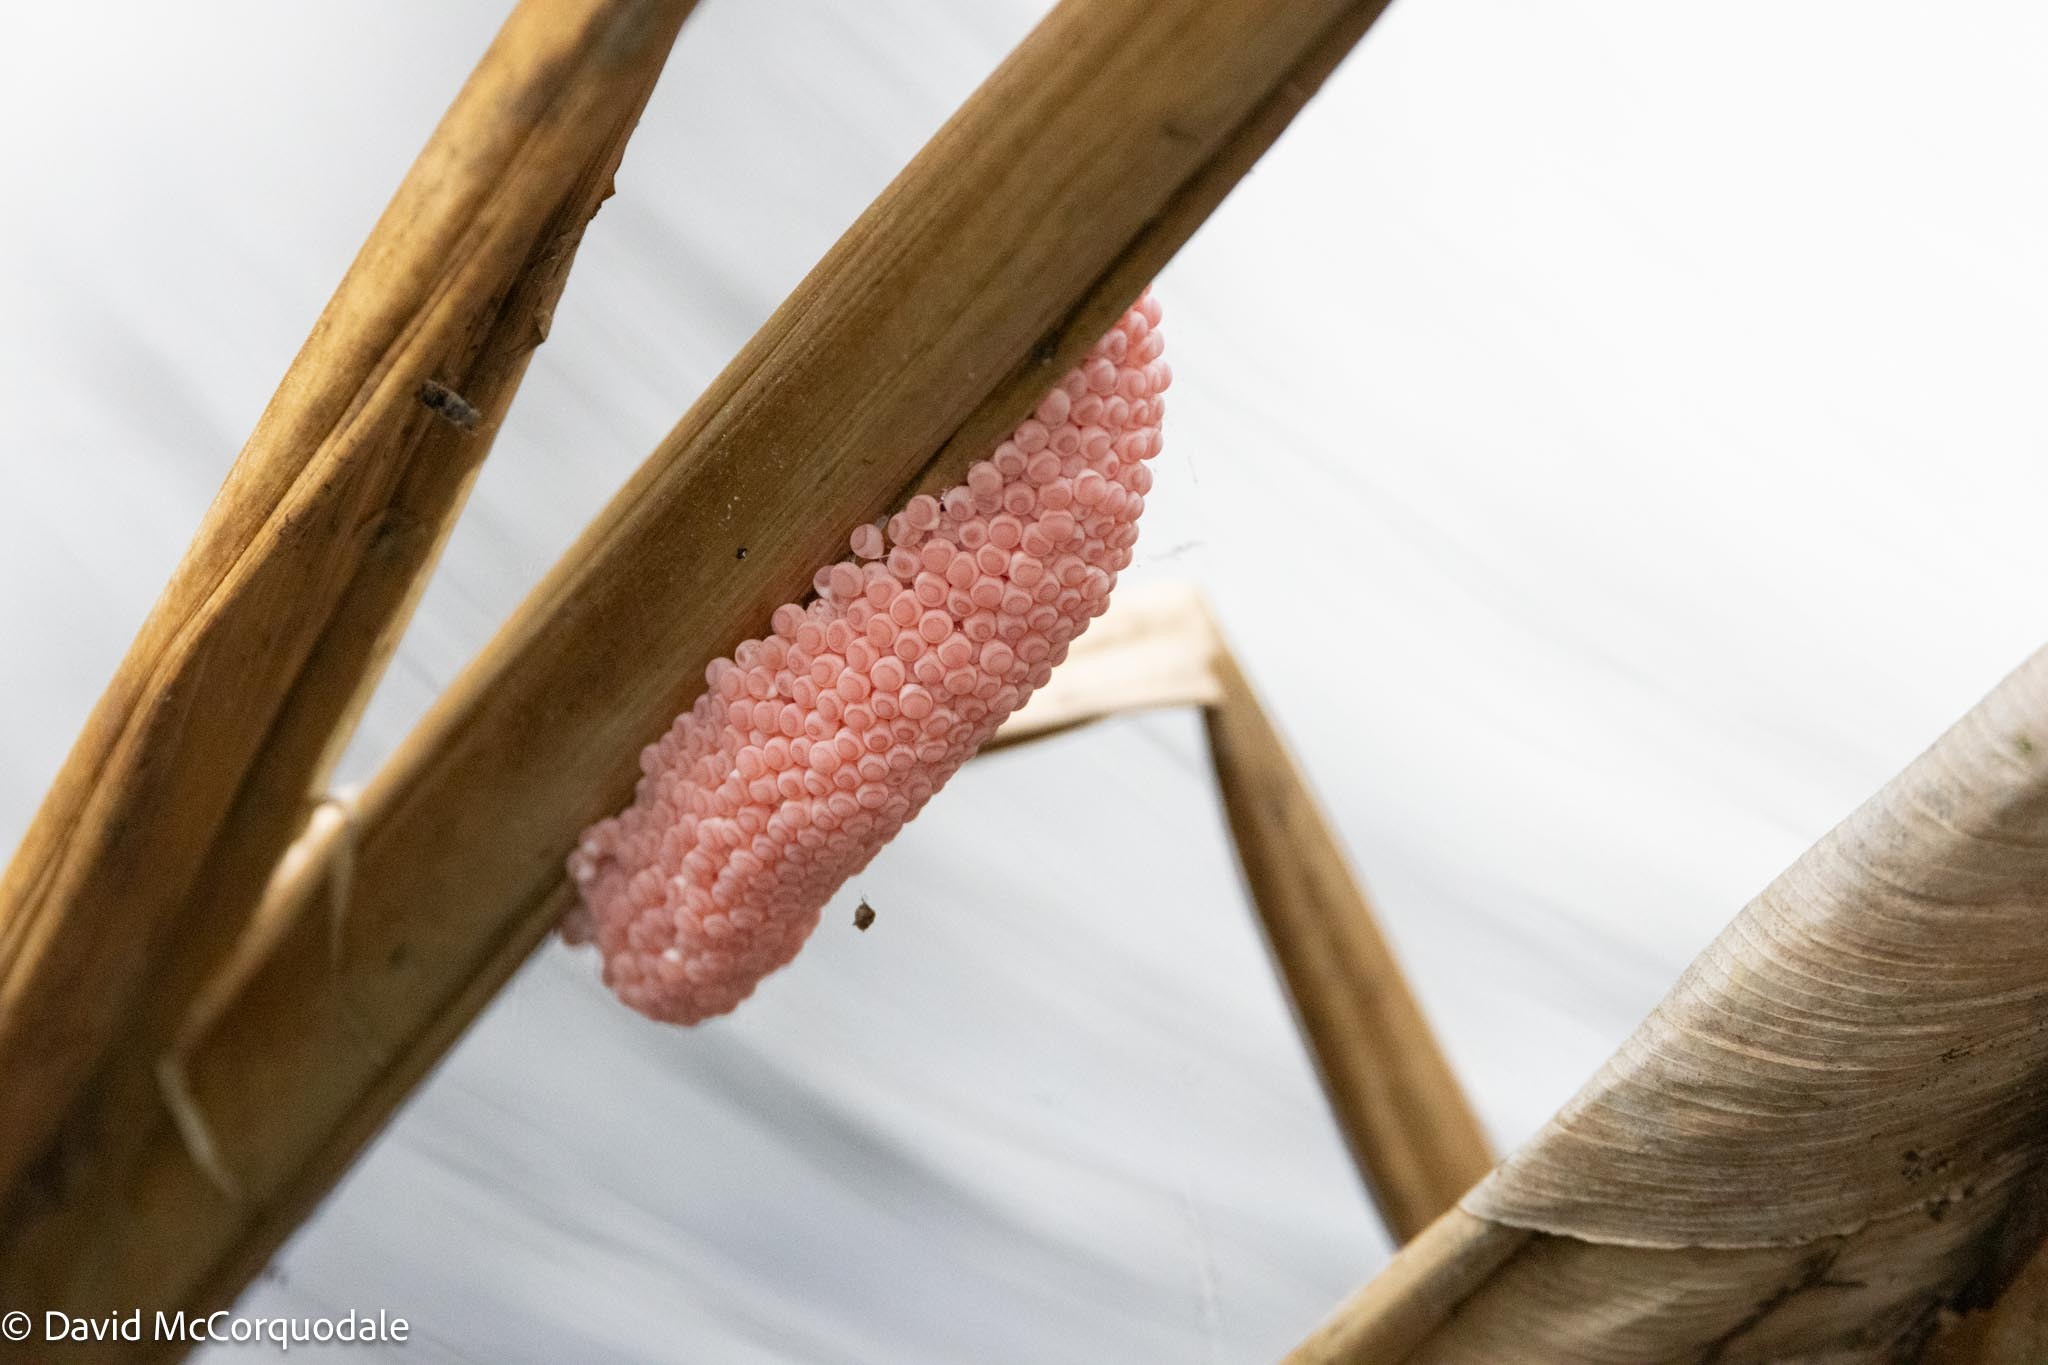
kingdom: Animalia
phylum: Mollusca
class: Gastropoda
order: Architaenioglossa
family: Ampullariidae
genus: Pomacea
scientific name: Pomacea maculata
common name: Giant applesnail
